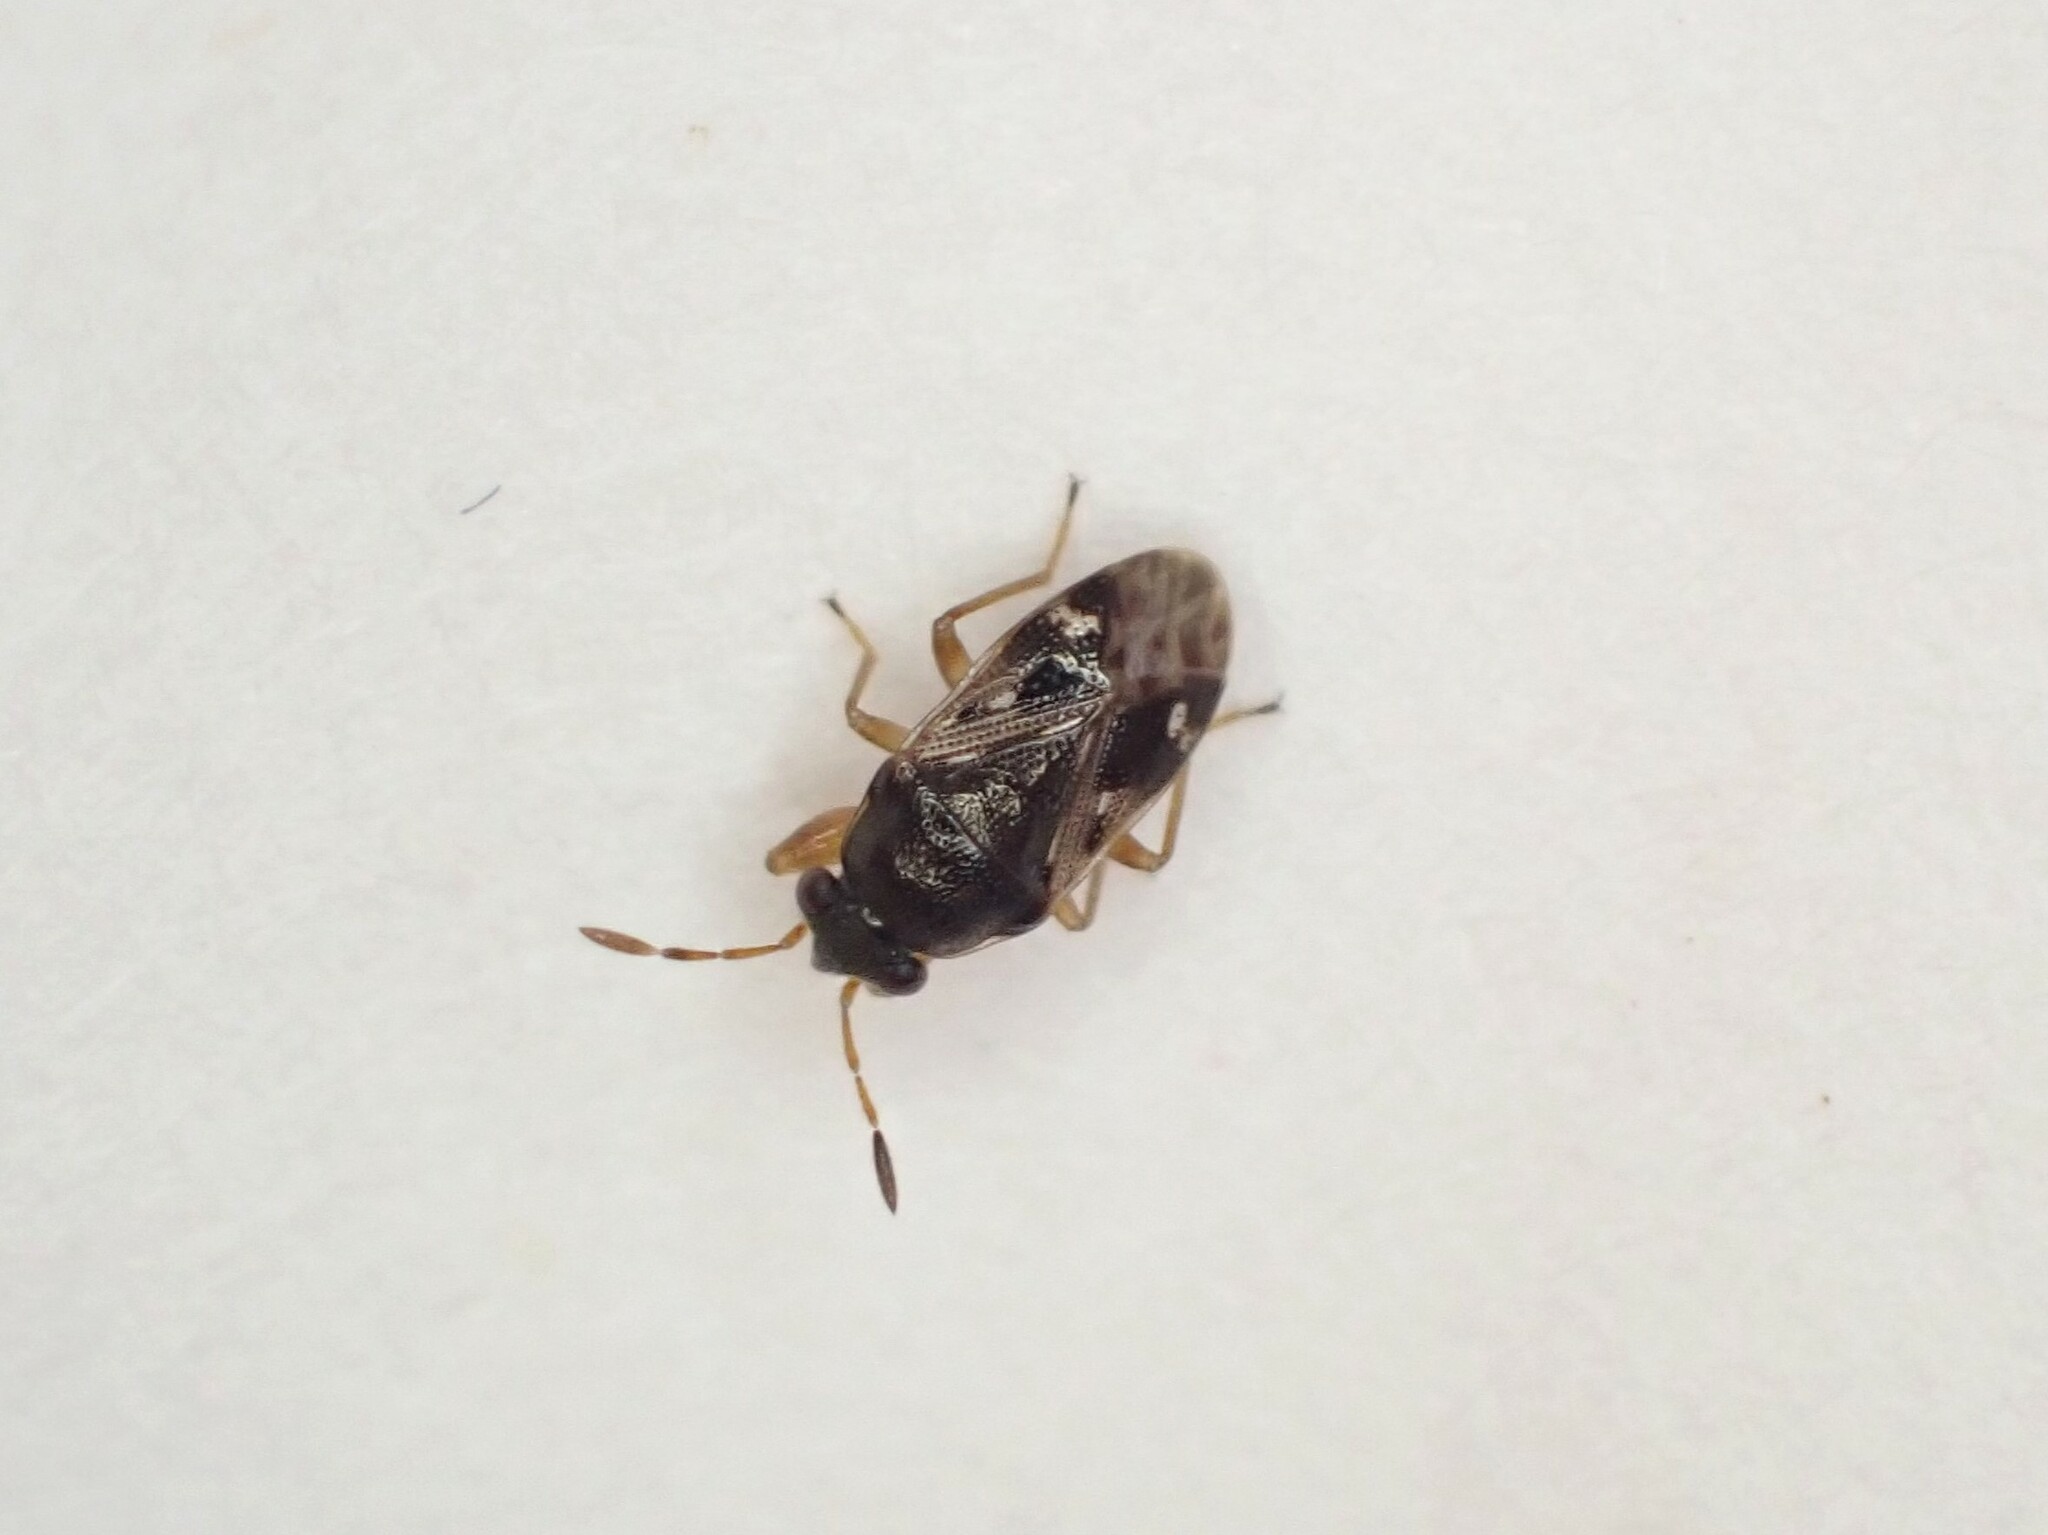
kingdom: Animalia
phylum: Arthropoda
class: Insecta
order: Hemiptera
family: Rhyparochromidae
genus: Stizocephalus
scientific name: Stizocephalus brevirostris
